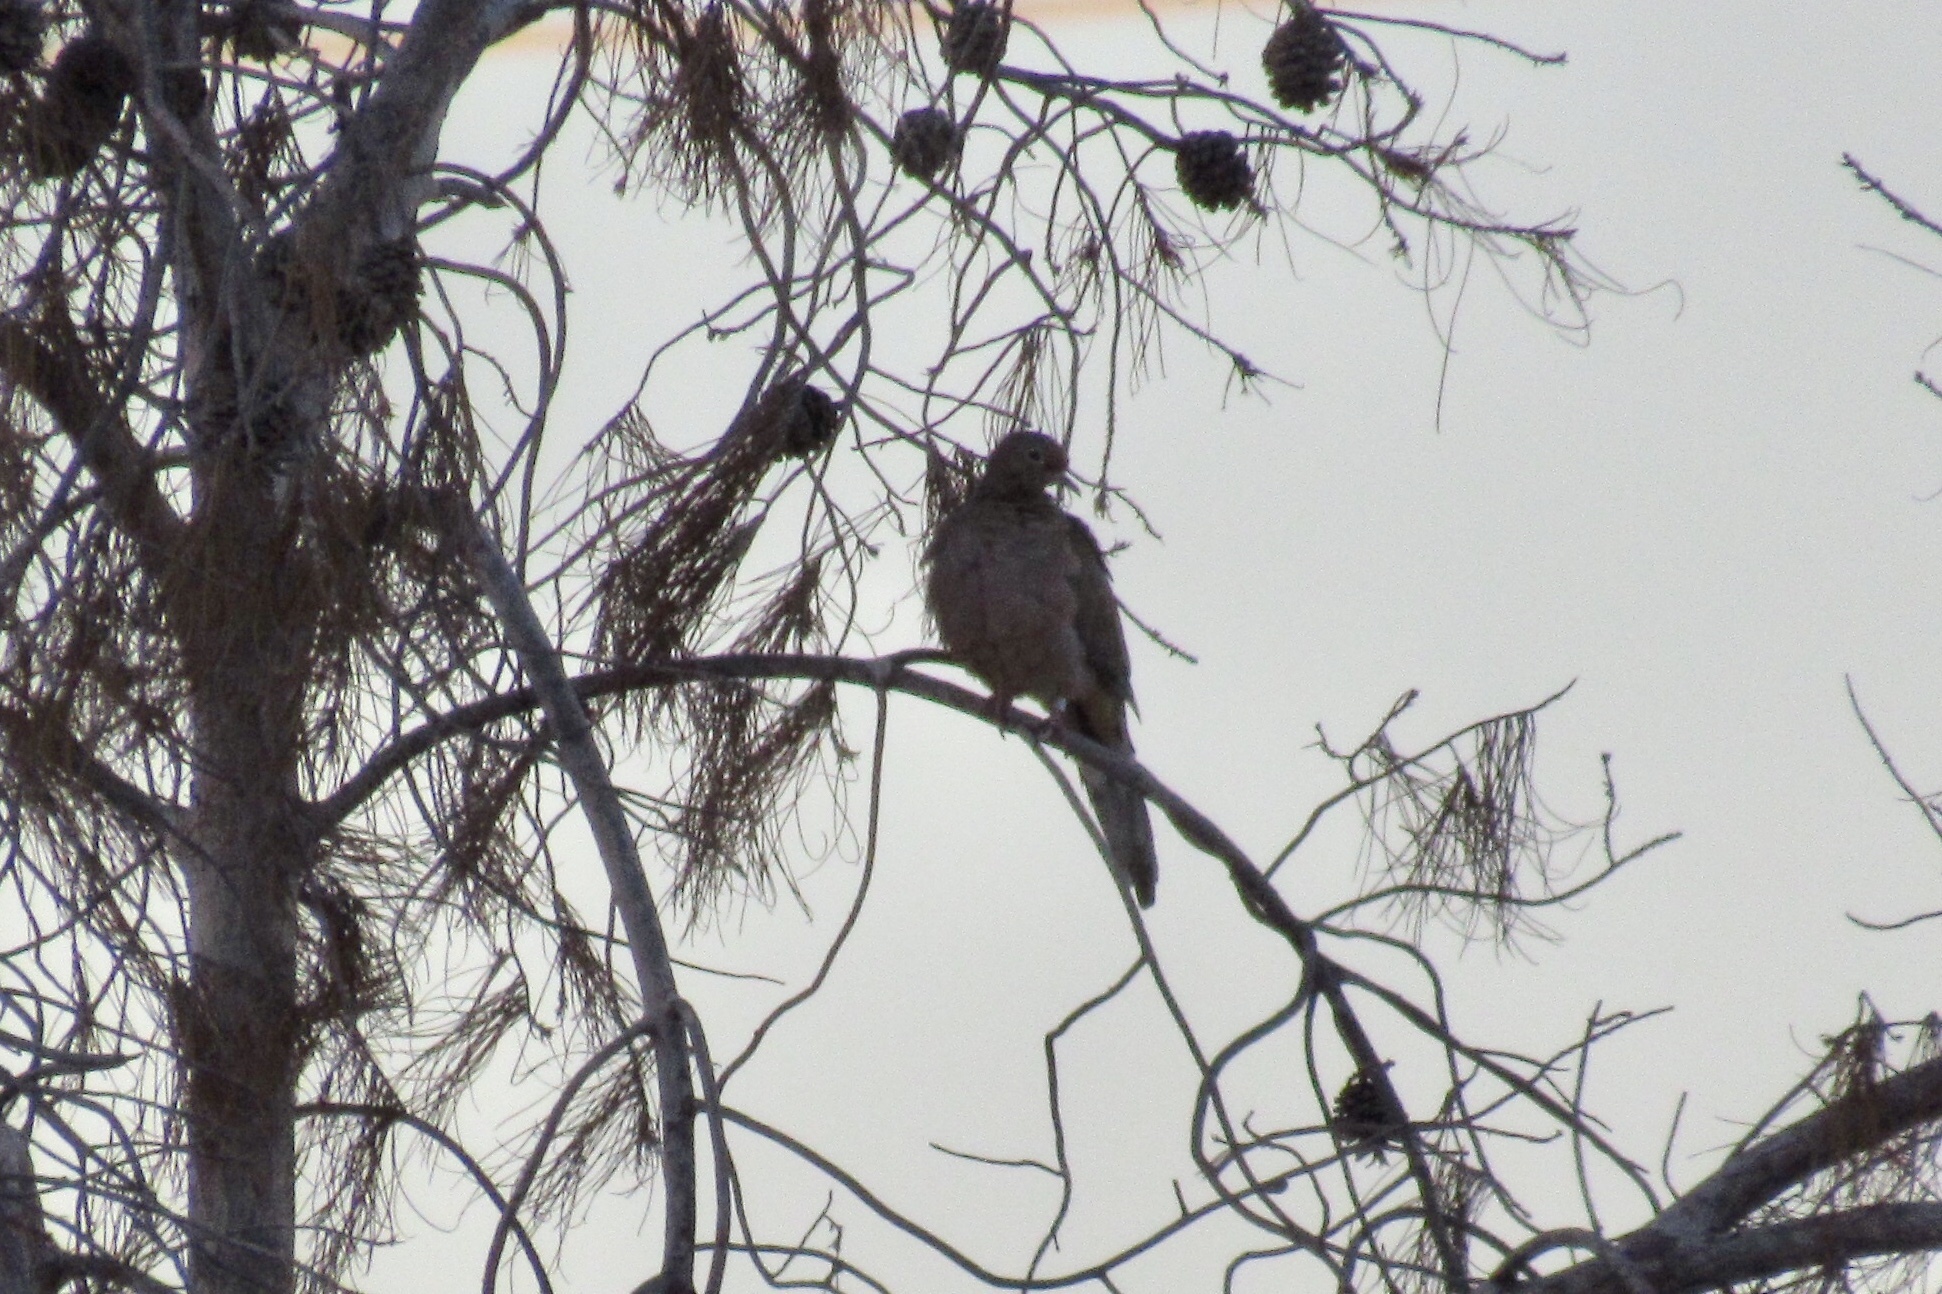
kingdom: Animalia
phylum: Chordata
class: Aves
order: Columbiformes
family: Columbidae
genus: Zenaida
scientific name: Zenaida macroura
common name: Mourning dove
